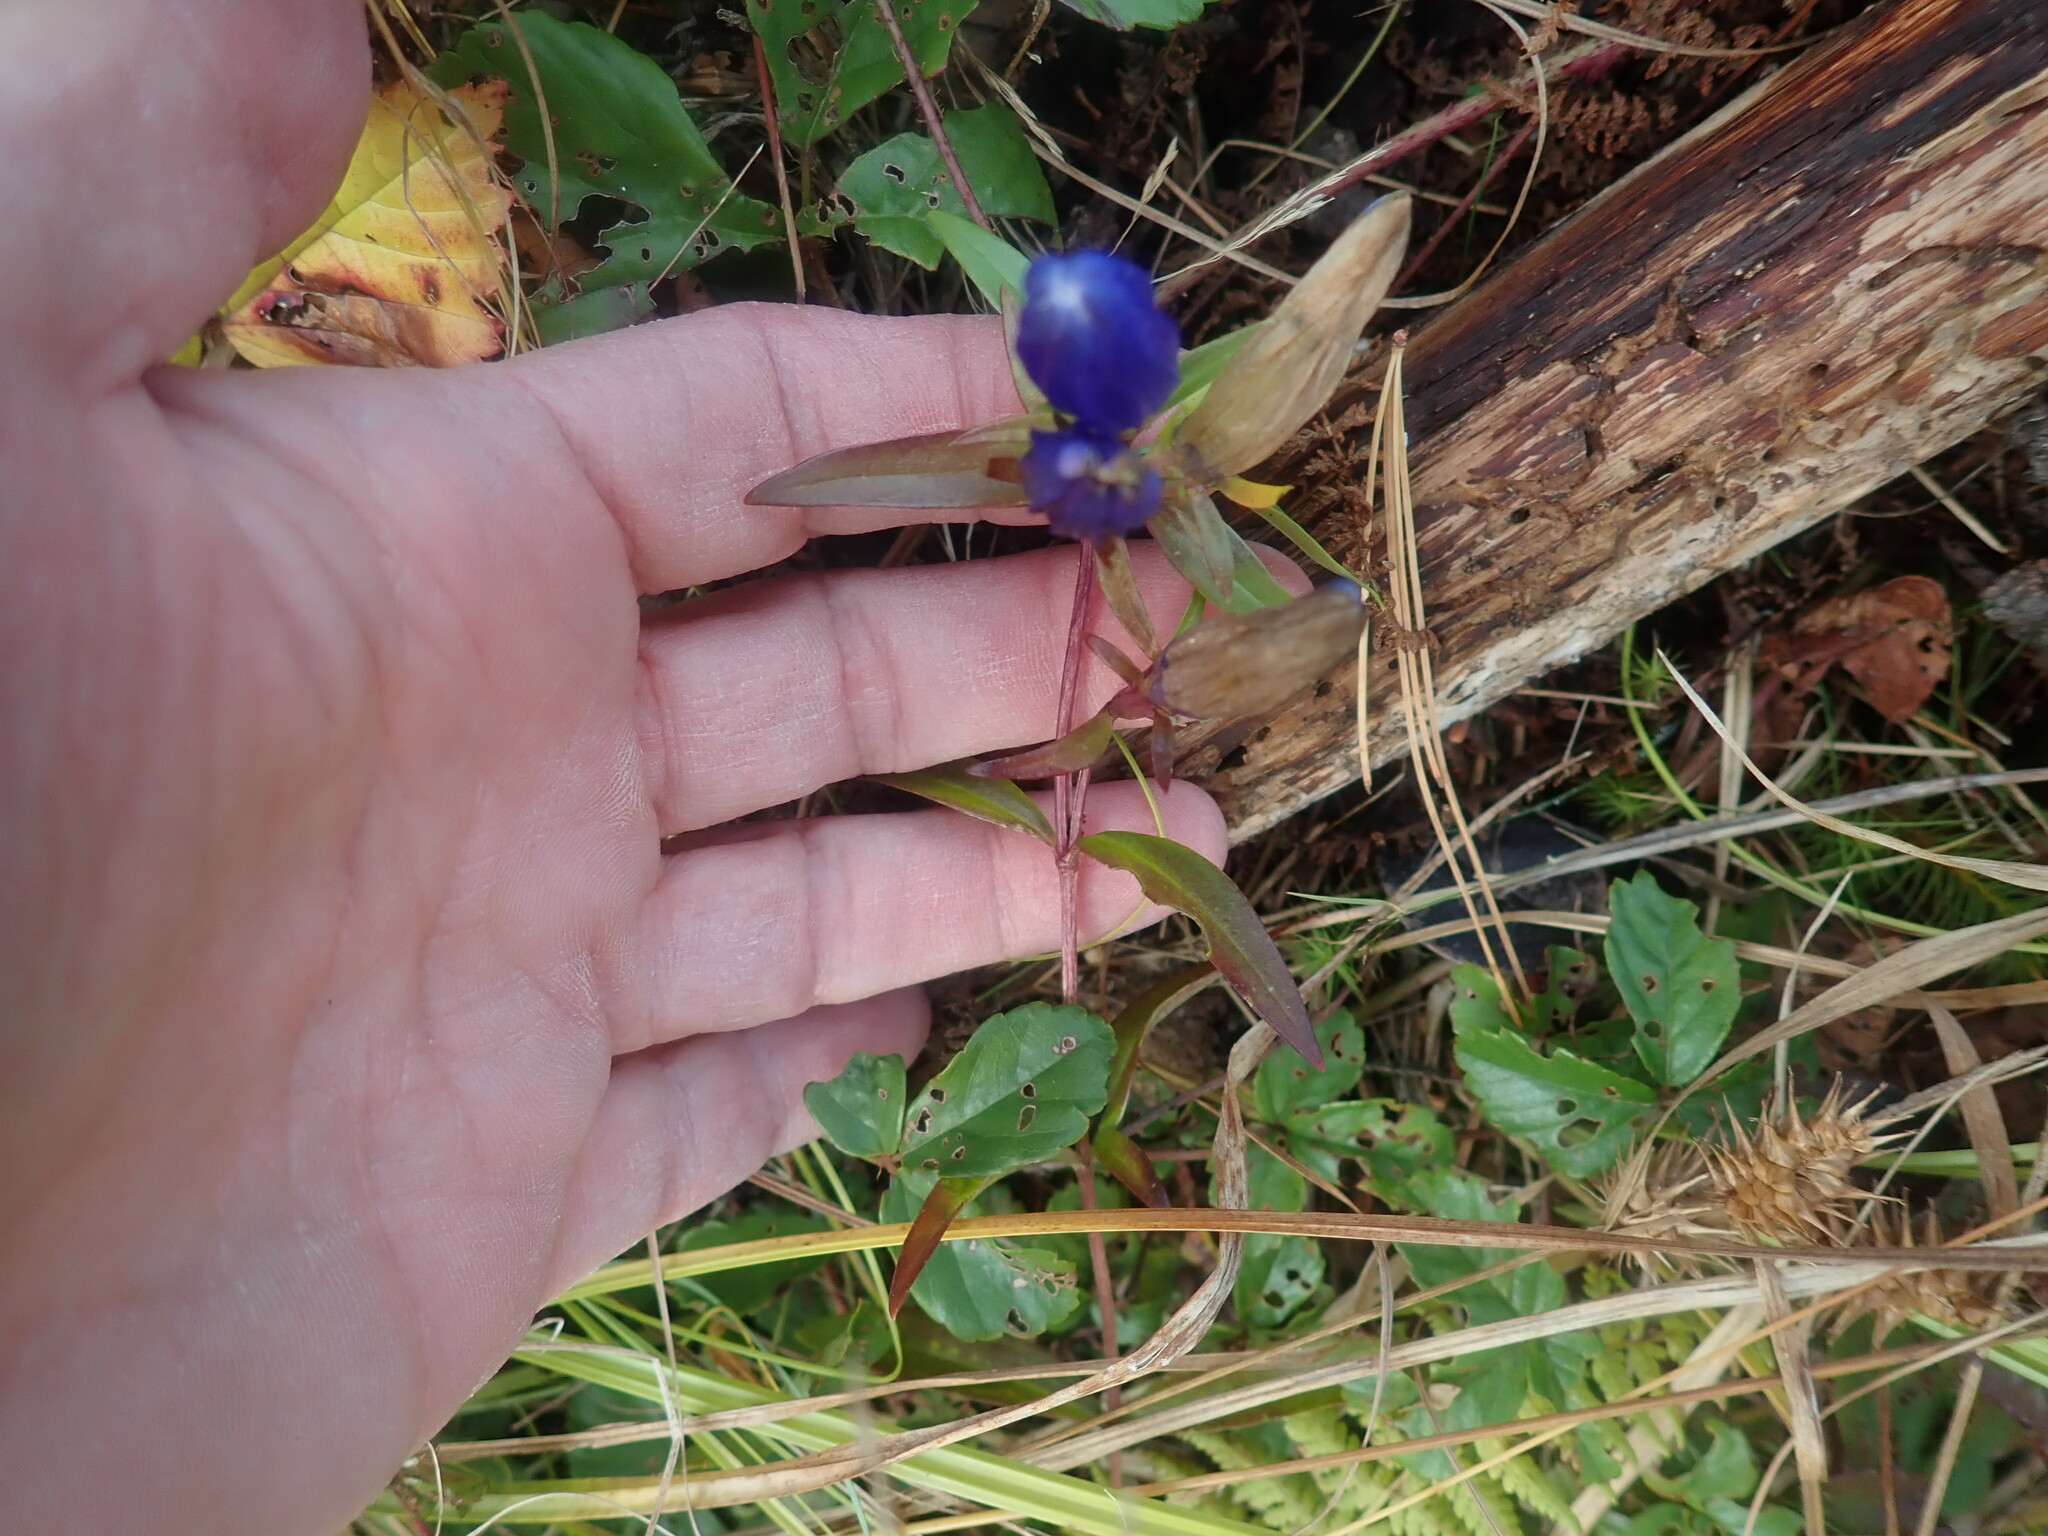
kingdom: Plantae
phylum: Tracheophyta
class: Magnoliopsida
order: Gentianales
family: Gentianaceae
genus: Gentiana
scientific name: Gentiana linearis
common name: Bastard gentian
